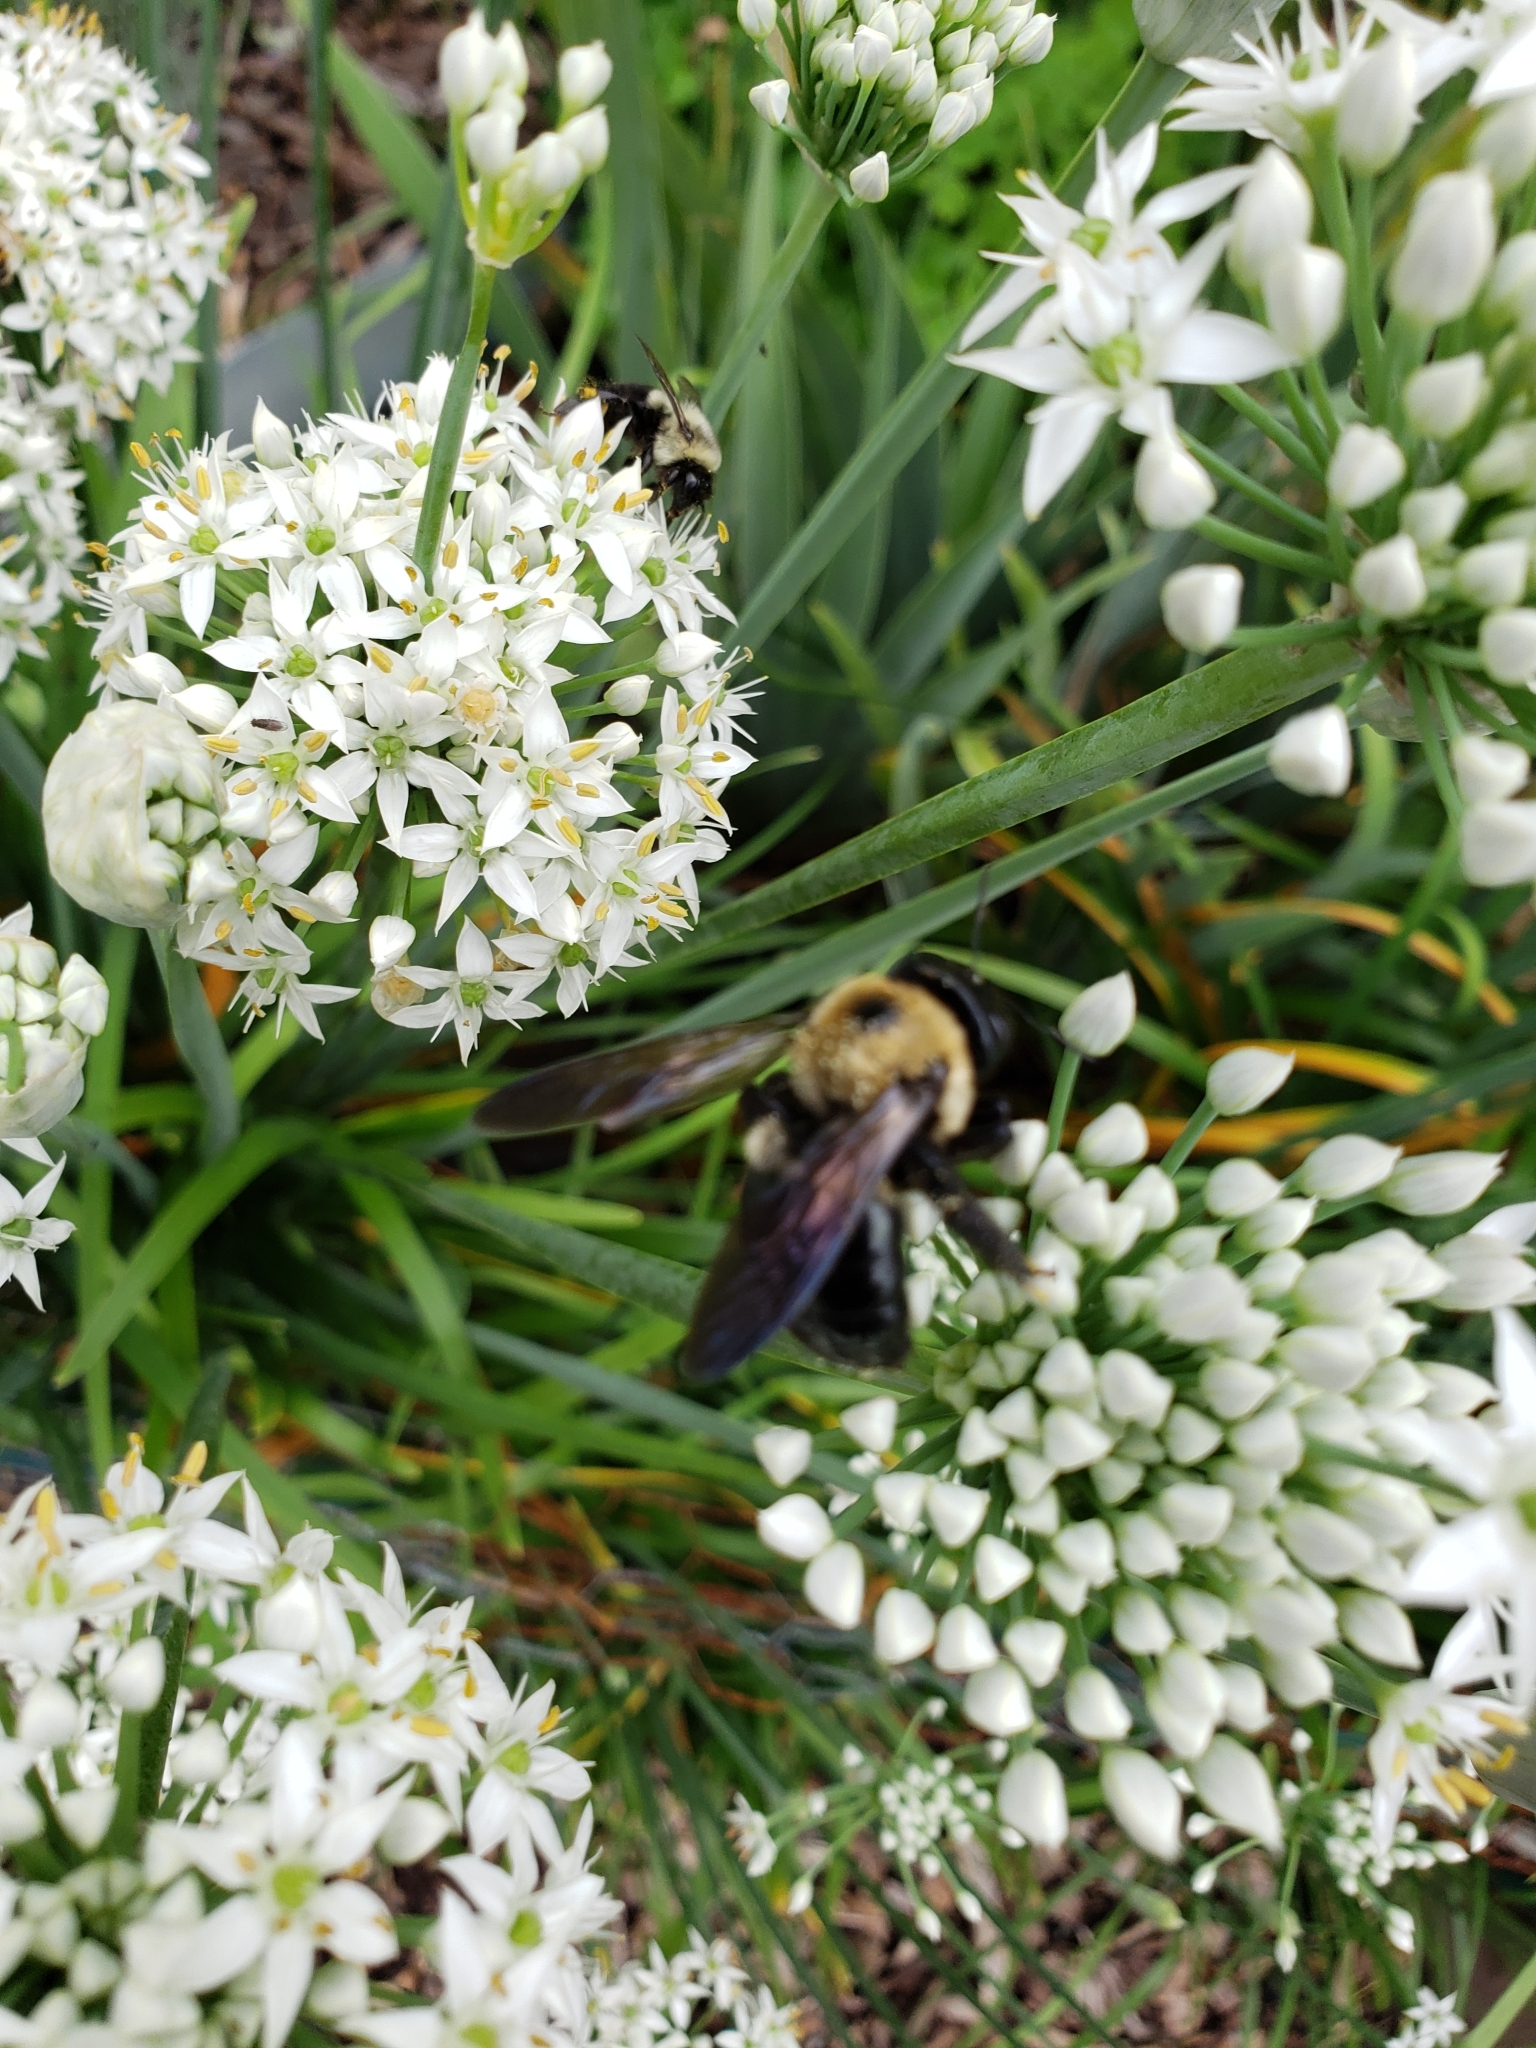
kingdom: Animalia
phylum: Arthropoda
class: Insecta
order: Hymenoptera
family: Apidae
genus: Xylocopa
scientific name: Xylocopa virginica
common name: Carpenter bee
